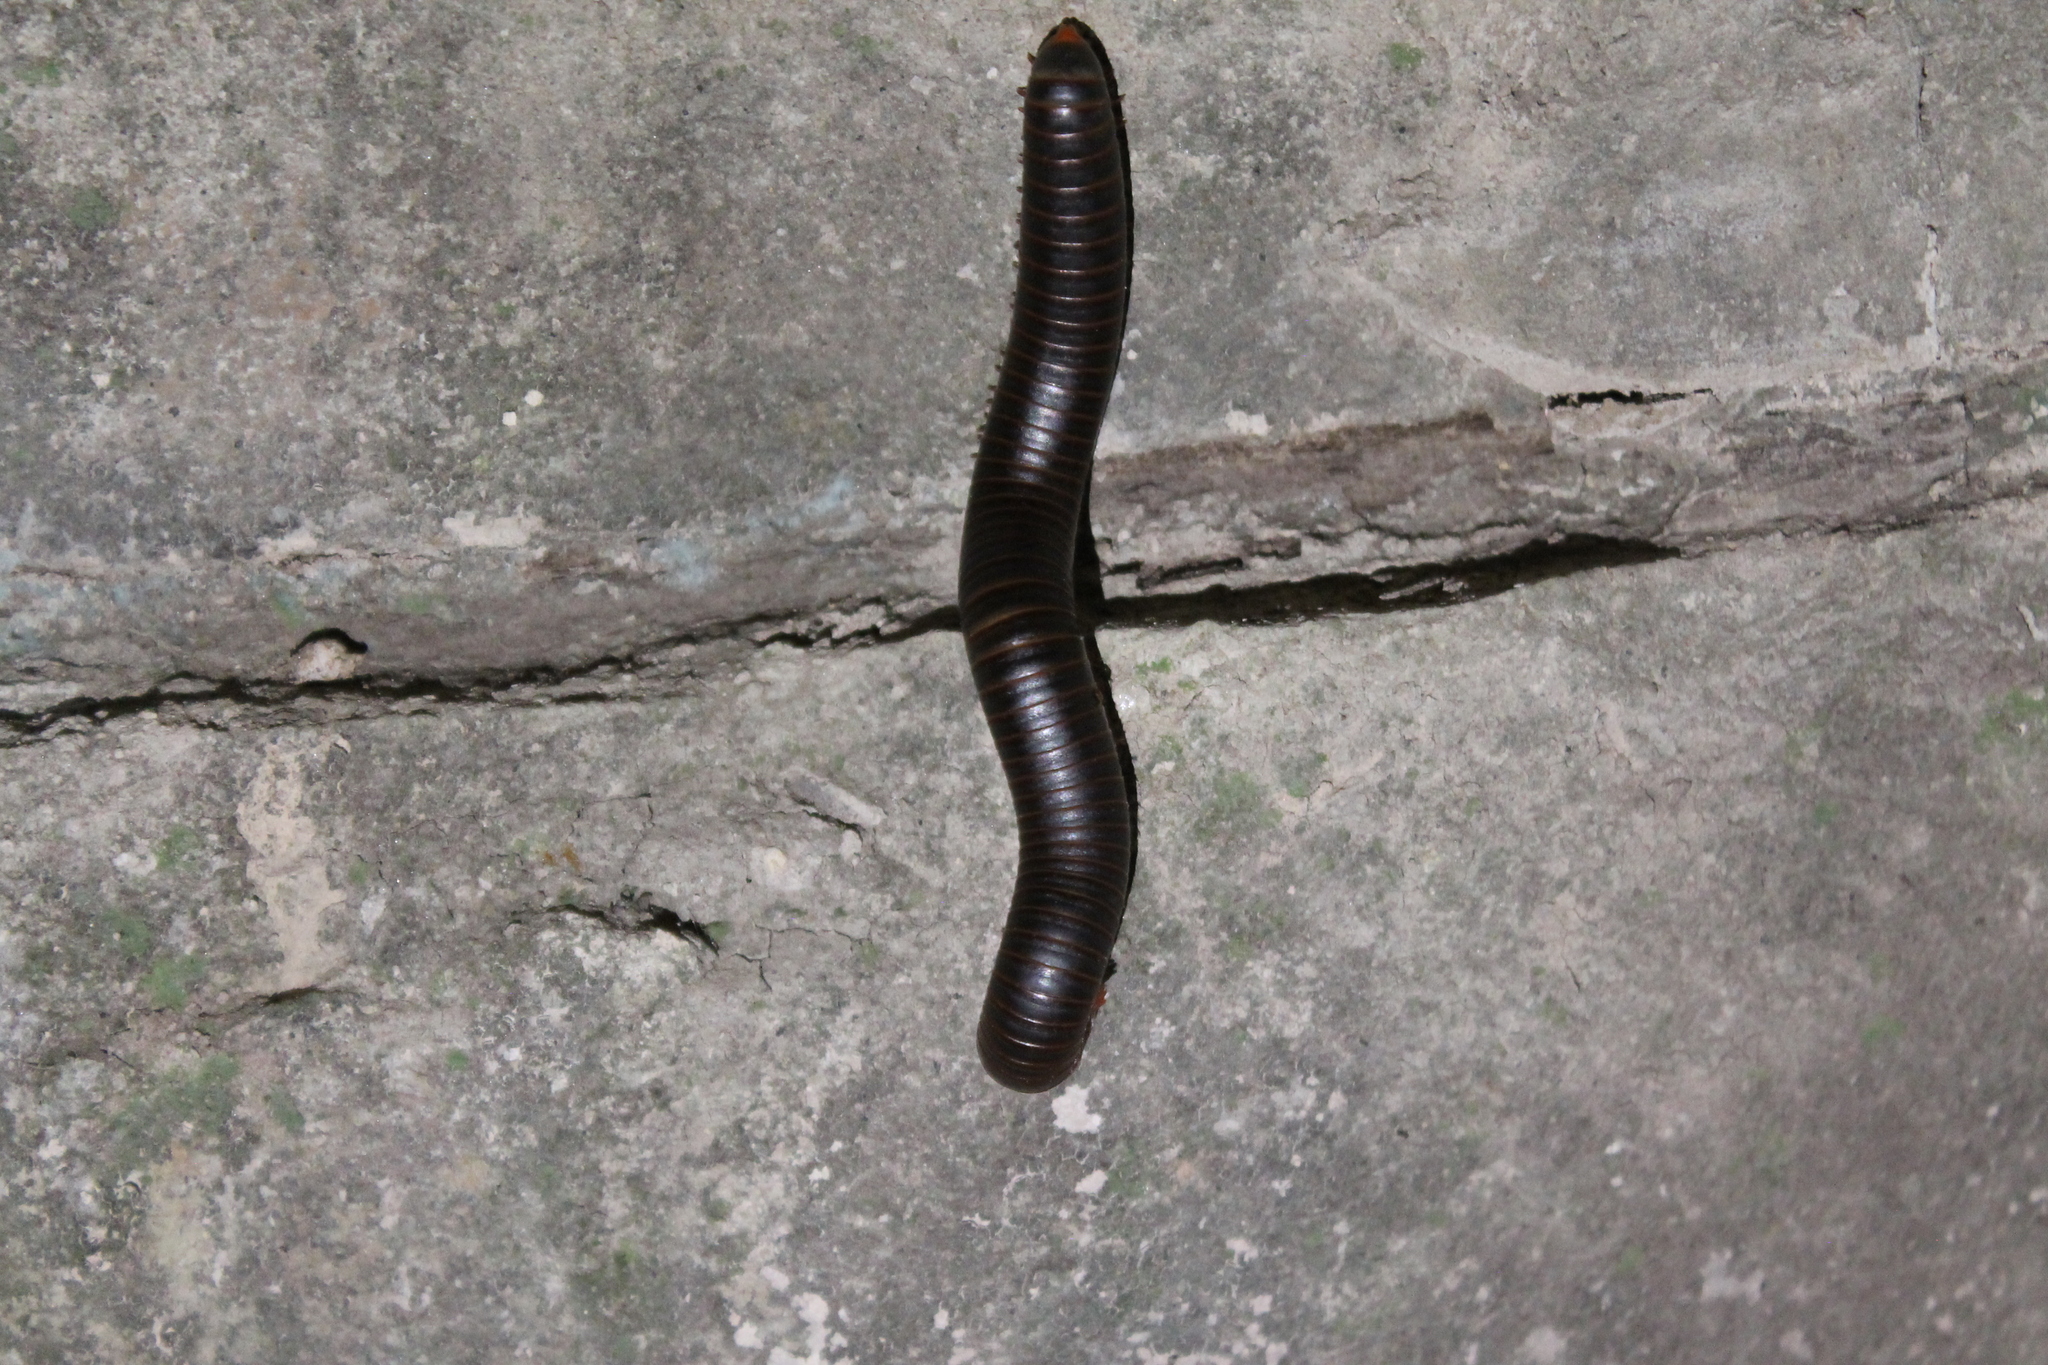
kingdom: Animalia
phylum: Arthropoda
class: Diplopoda
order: Spirobolida
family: Spirobolidae
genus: Narceus
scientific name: Narceus
